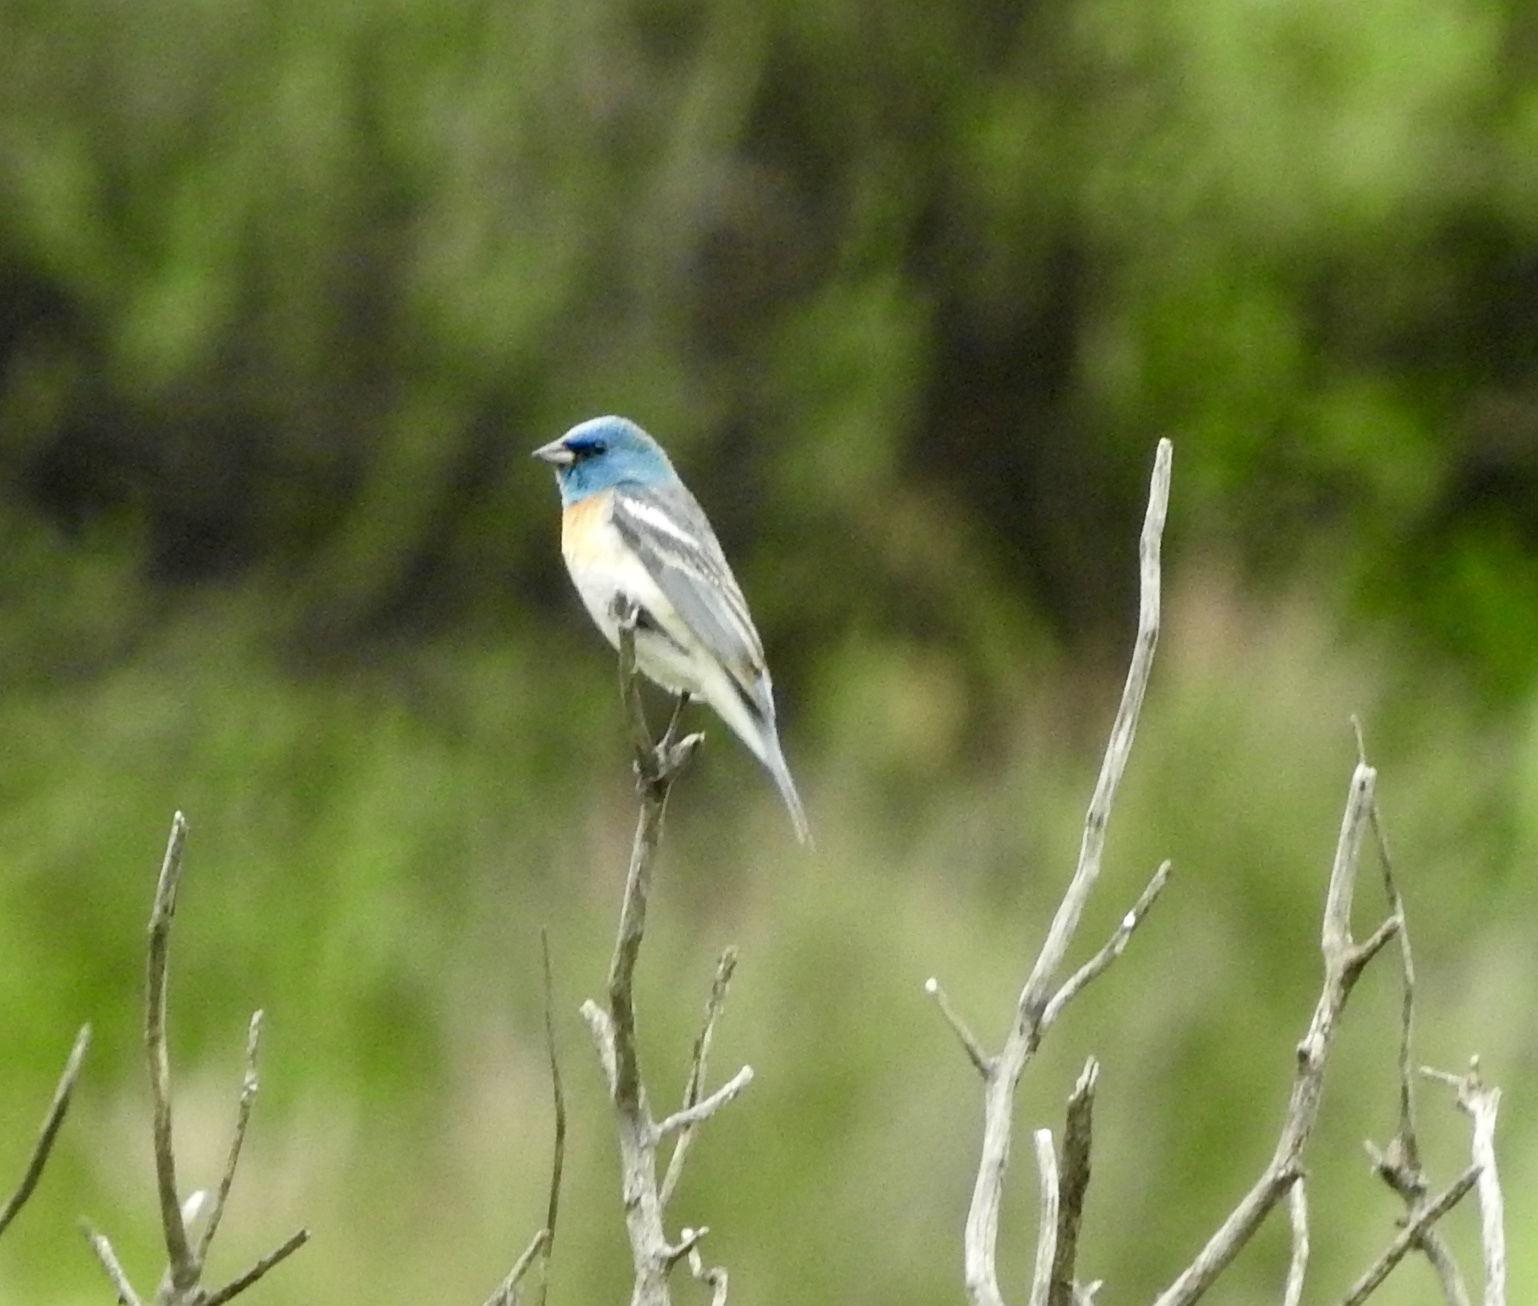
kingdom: Animalia
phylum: Chordata
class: Aves
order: Passeriformes
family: Cardinalidae
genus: Passerina
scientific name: Passerina amoena
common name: Lazuli bunting
